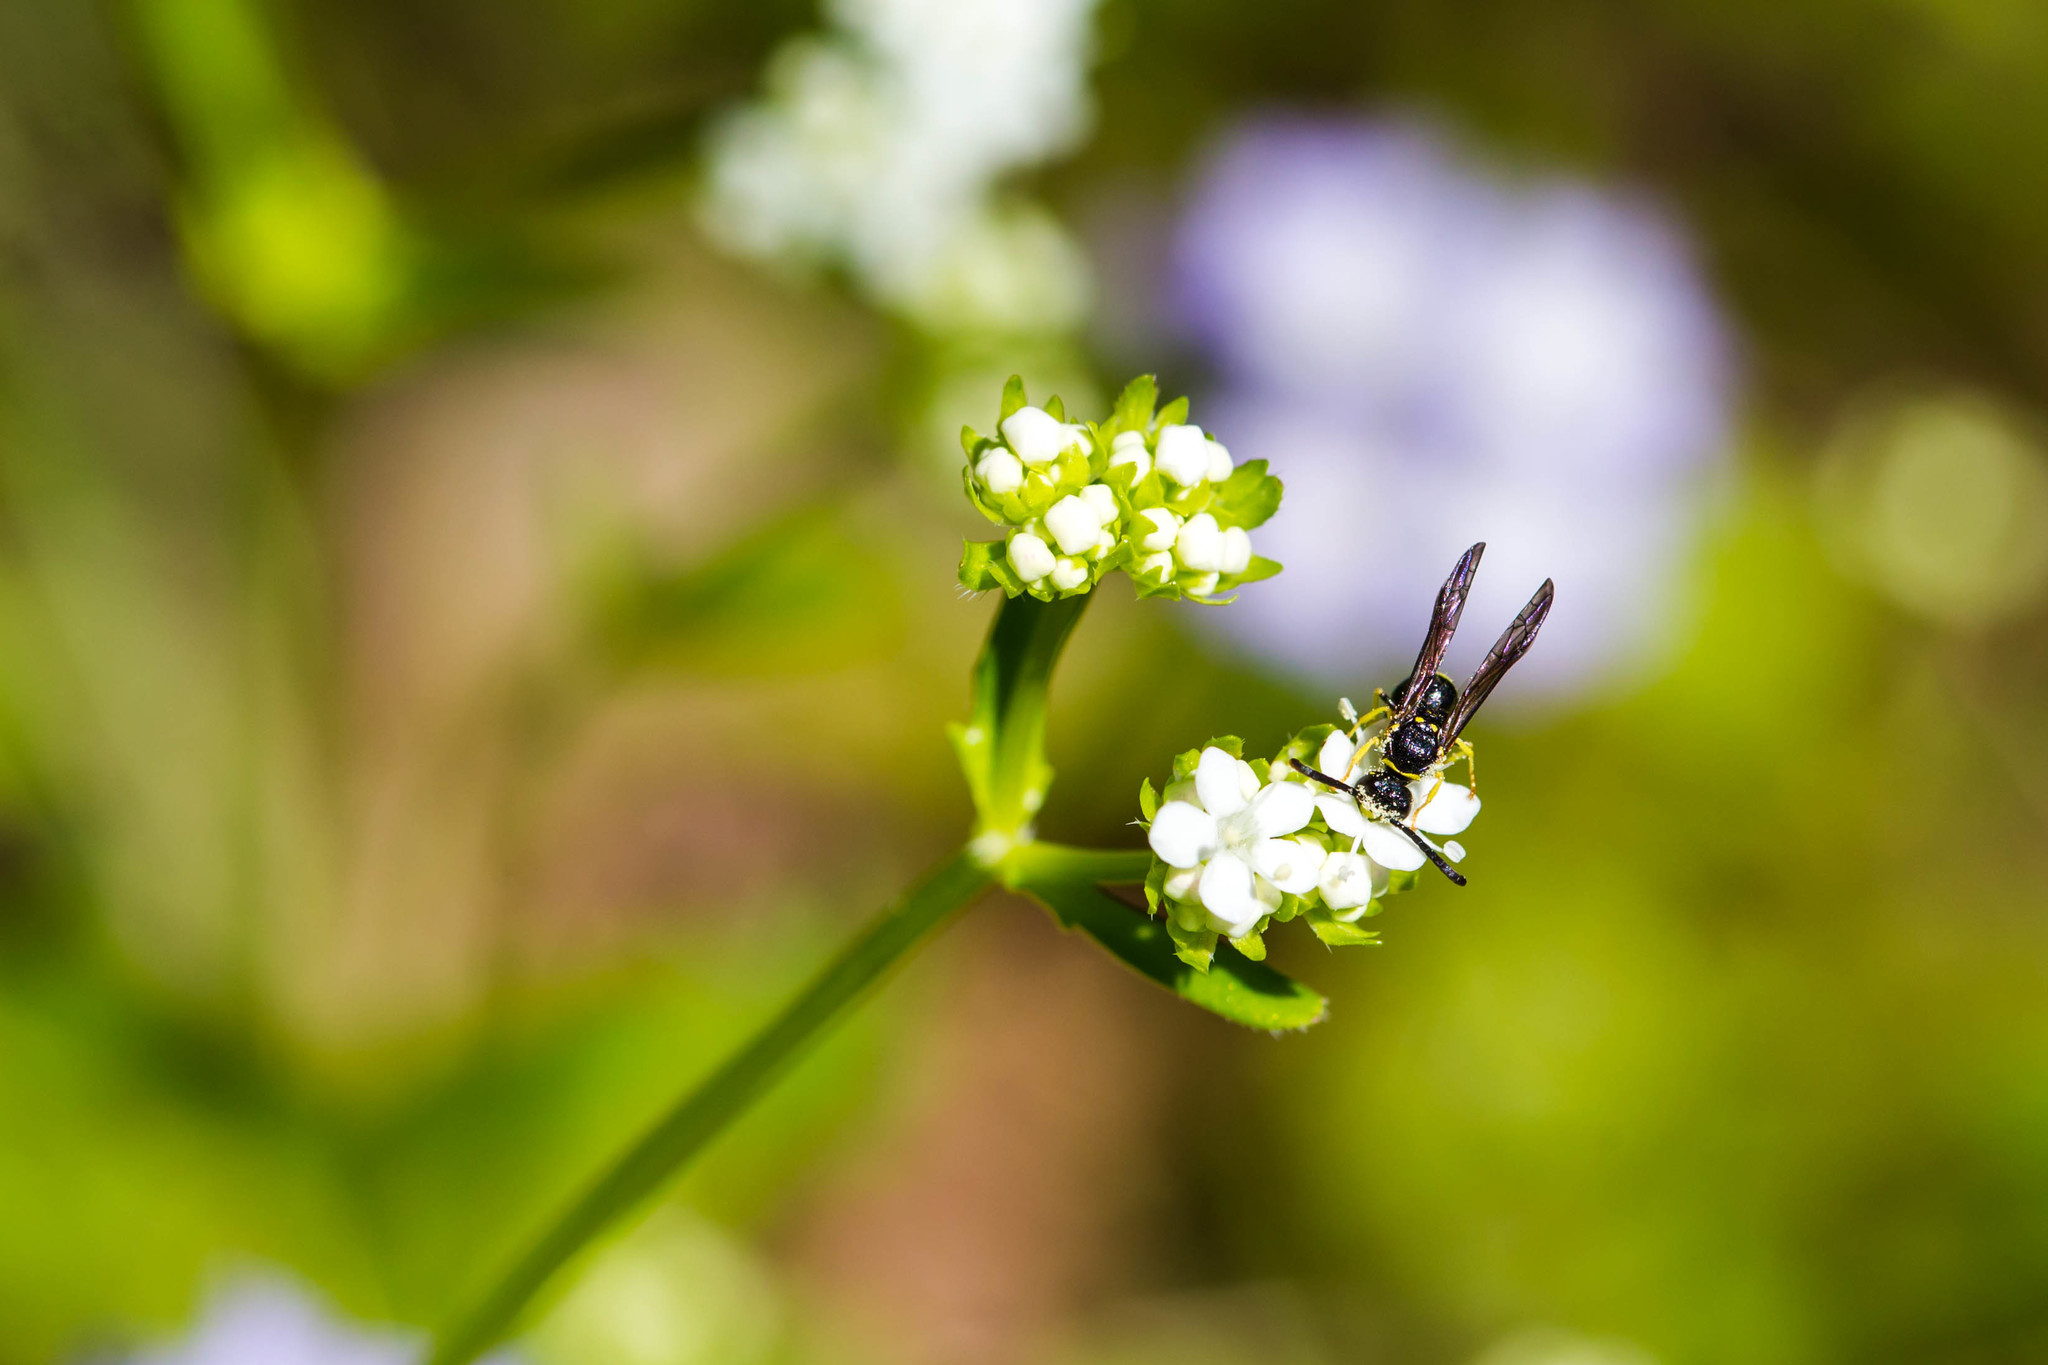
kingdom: Animalia
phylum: Arthropoda
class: Insecta
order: Hymenoptera
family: Vespidae
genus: Ancistrocerus
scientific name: Ancistrocerus adiabatus
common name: Bramble mason wasp
